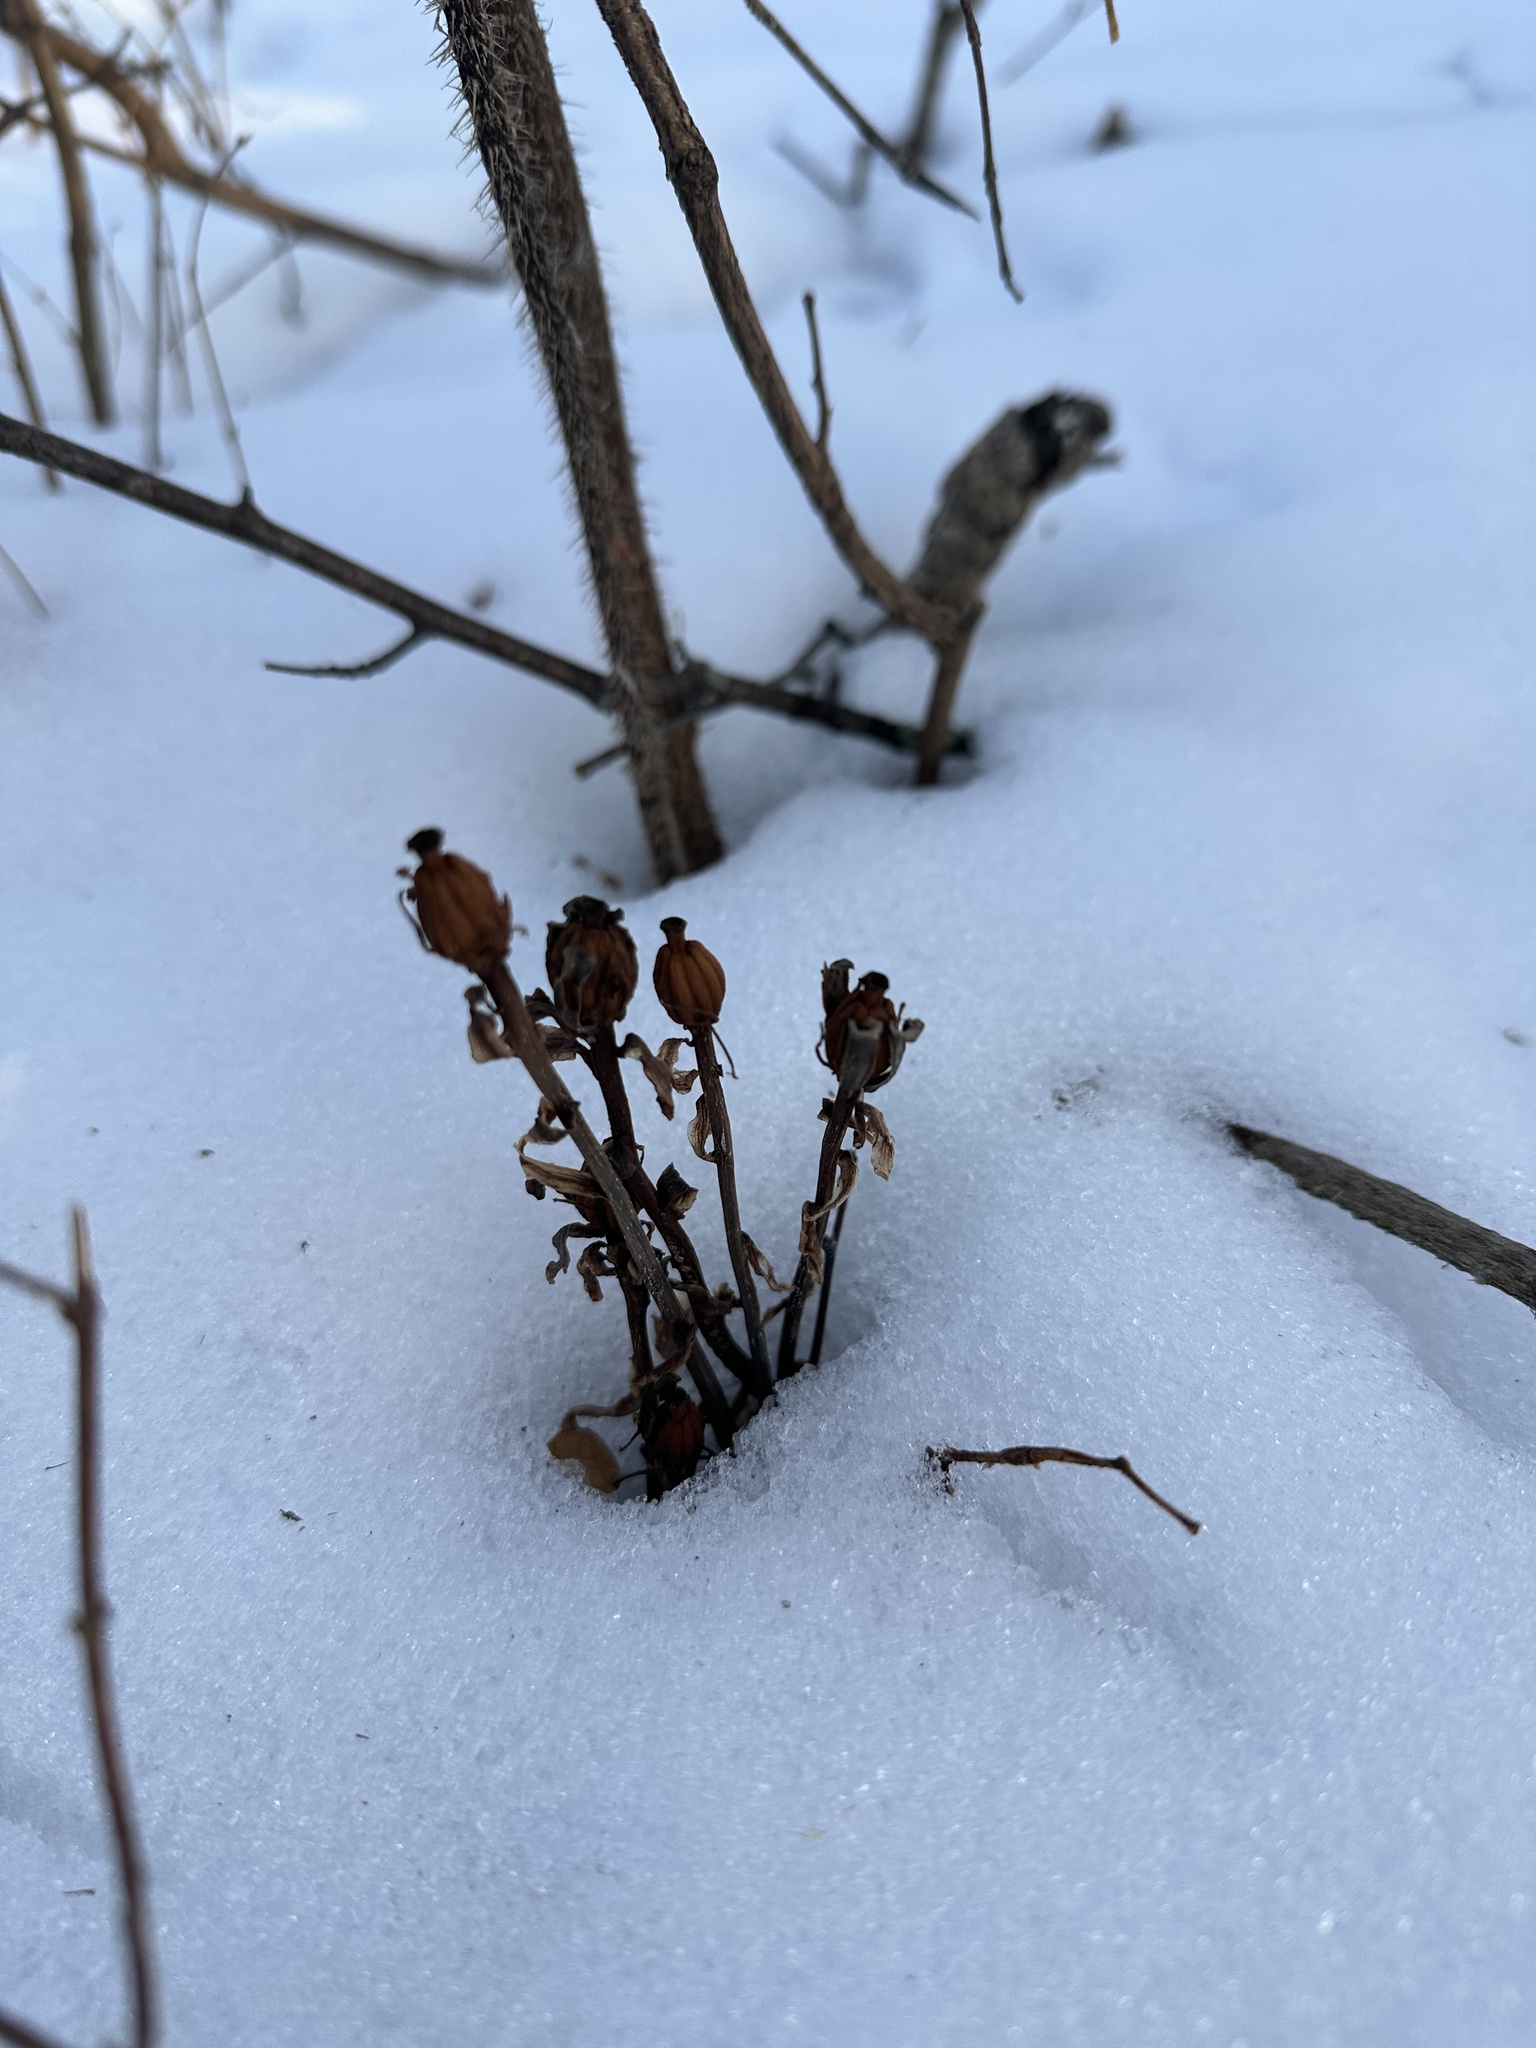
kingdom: Plantae
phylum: Tracheophyta
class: Magnoliopsida
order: Ericales
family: Ericaceae
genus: Monotropa
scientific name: Monotropa uniflora
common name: Convulsion root
